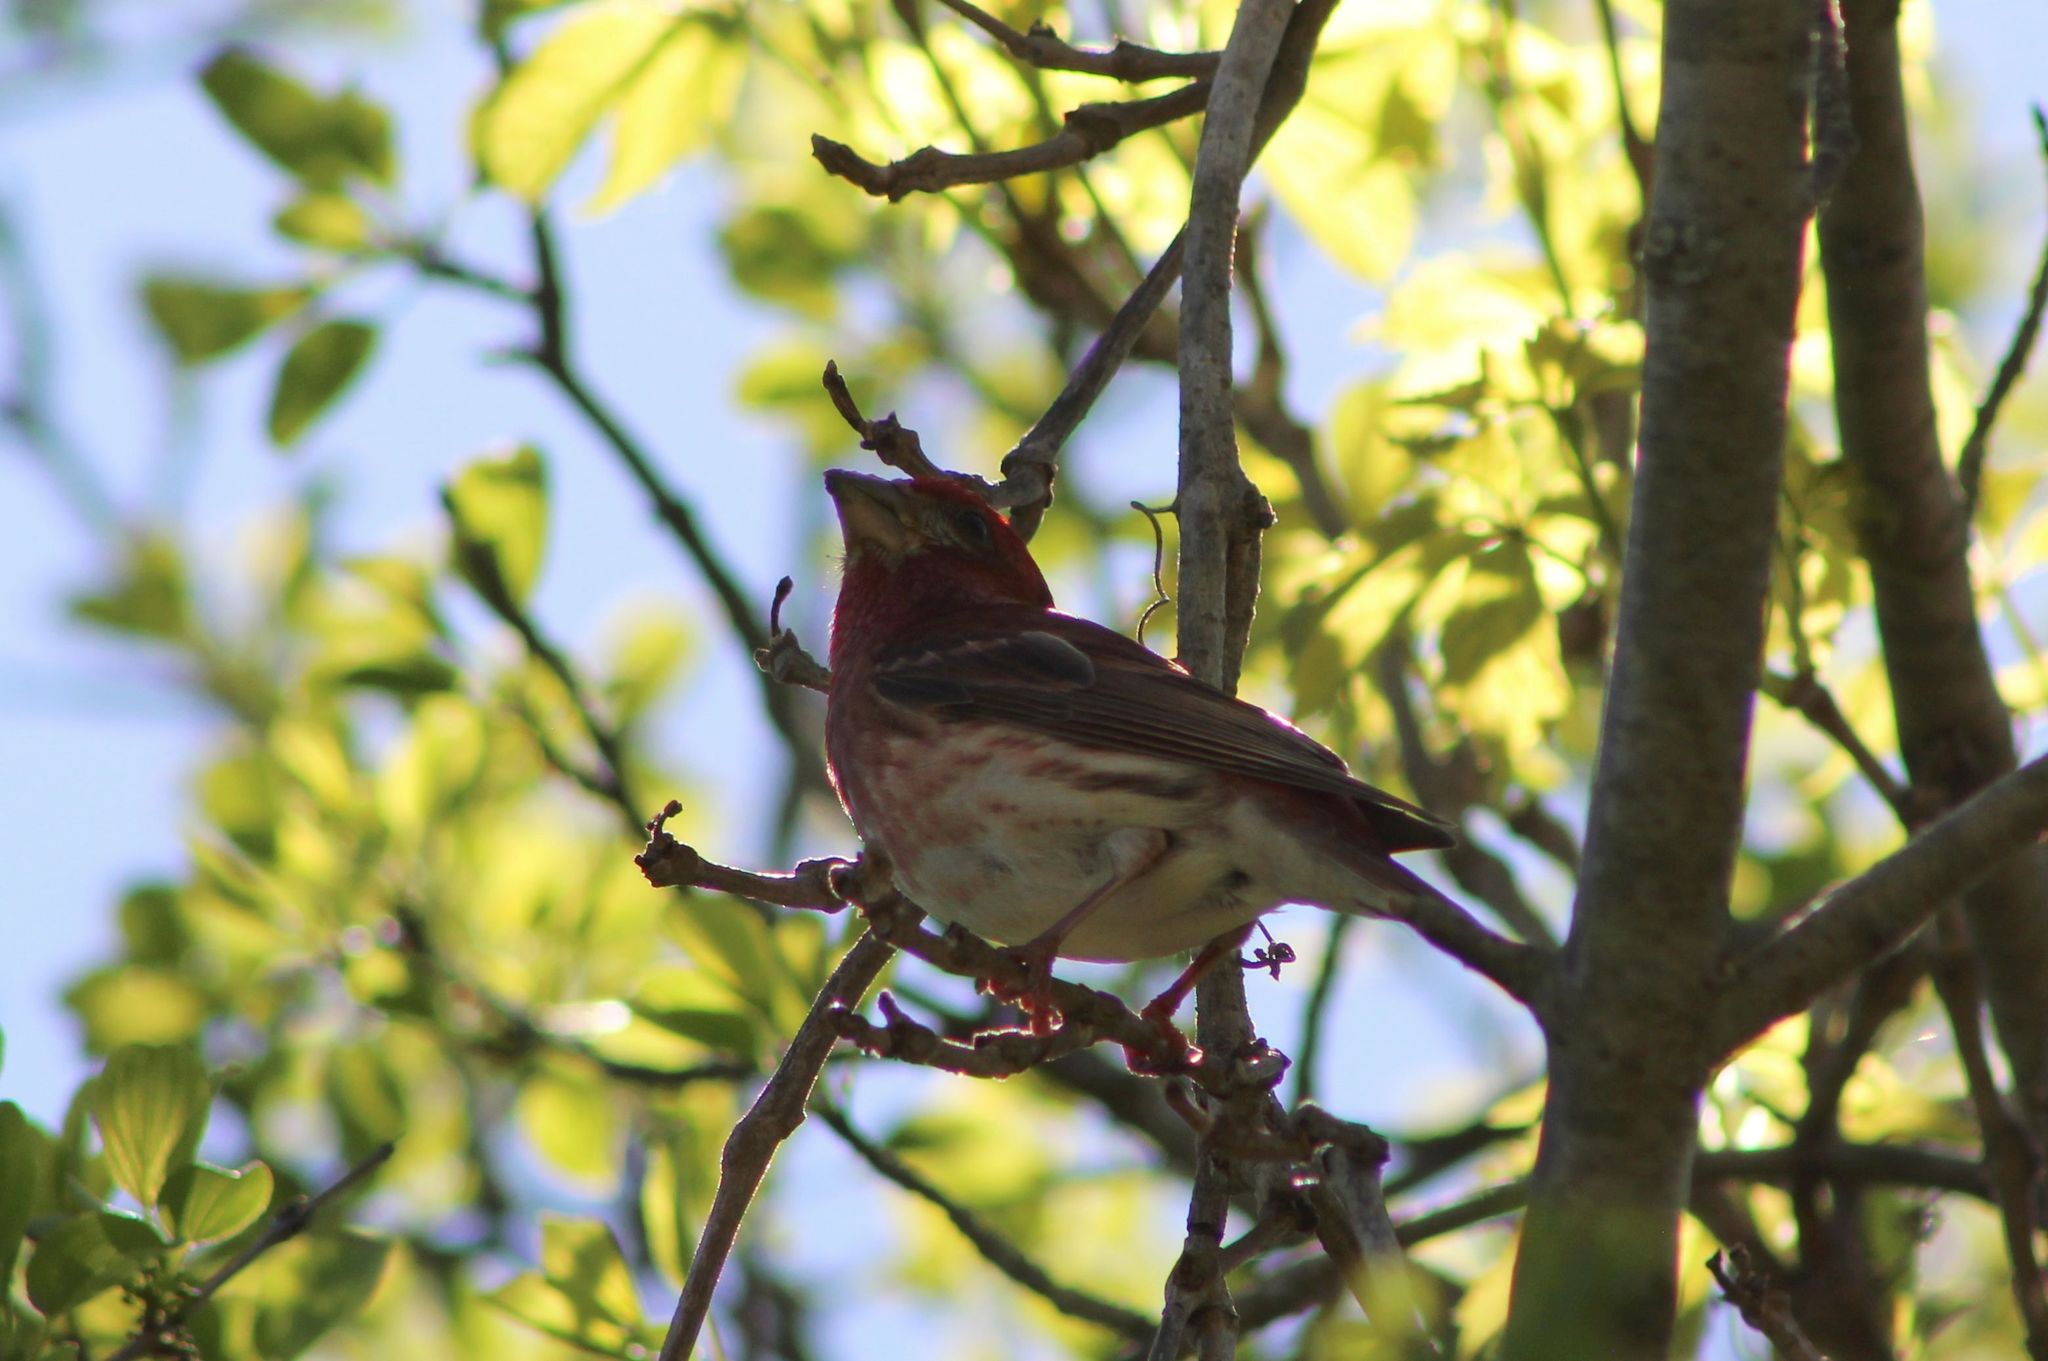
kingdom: Animalia
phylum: Chordata
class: Aves
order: Passeriformes
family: Fringillidae
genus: Haemorhous
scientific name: Haemorhous purpureus
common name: Purple finch
